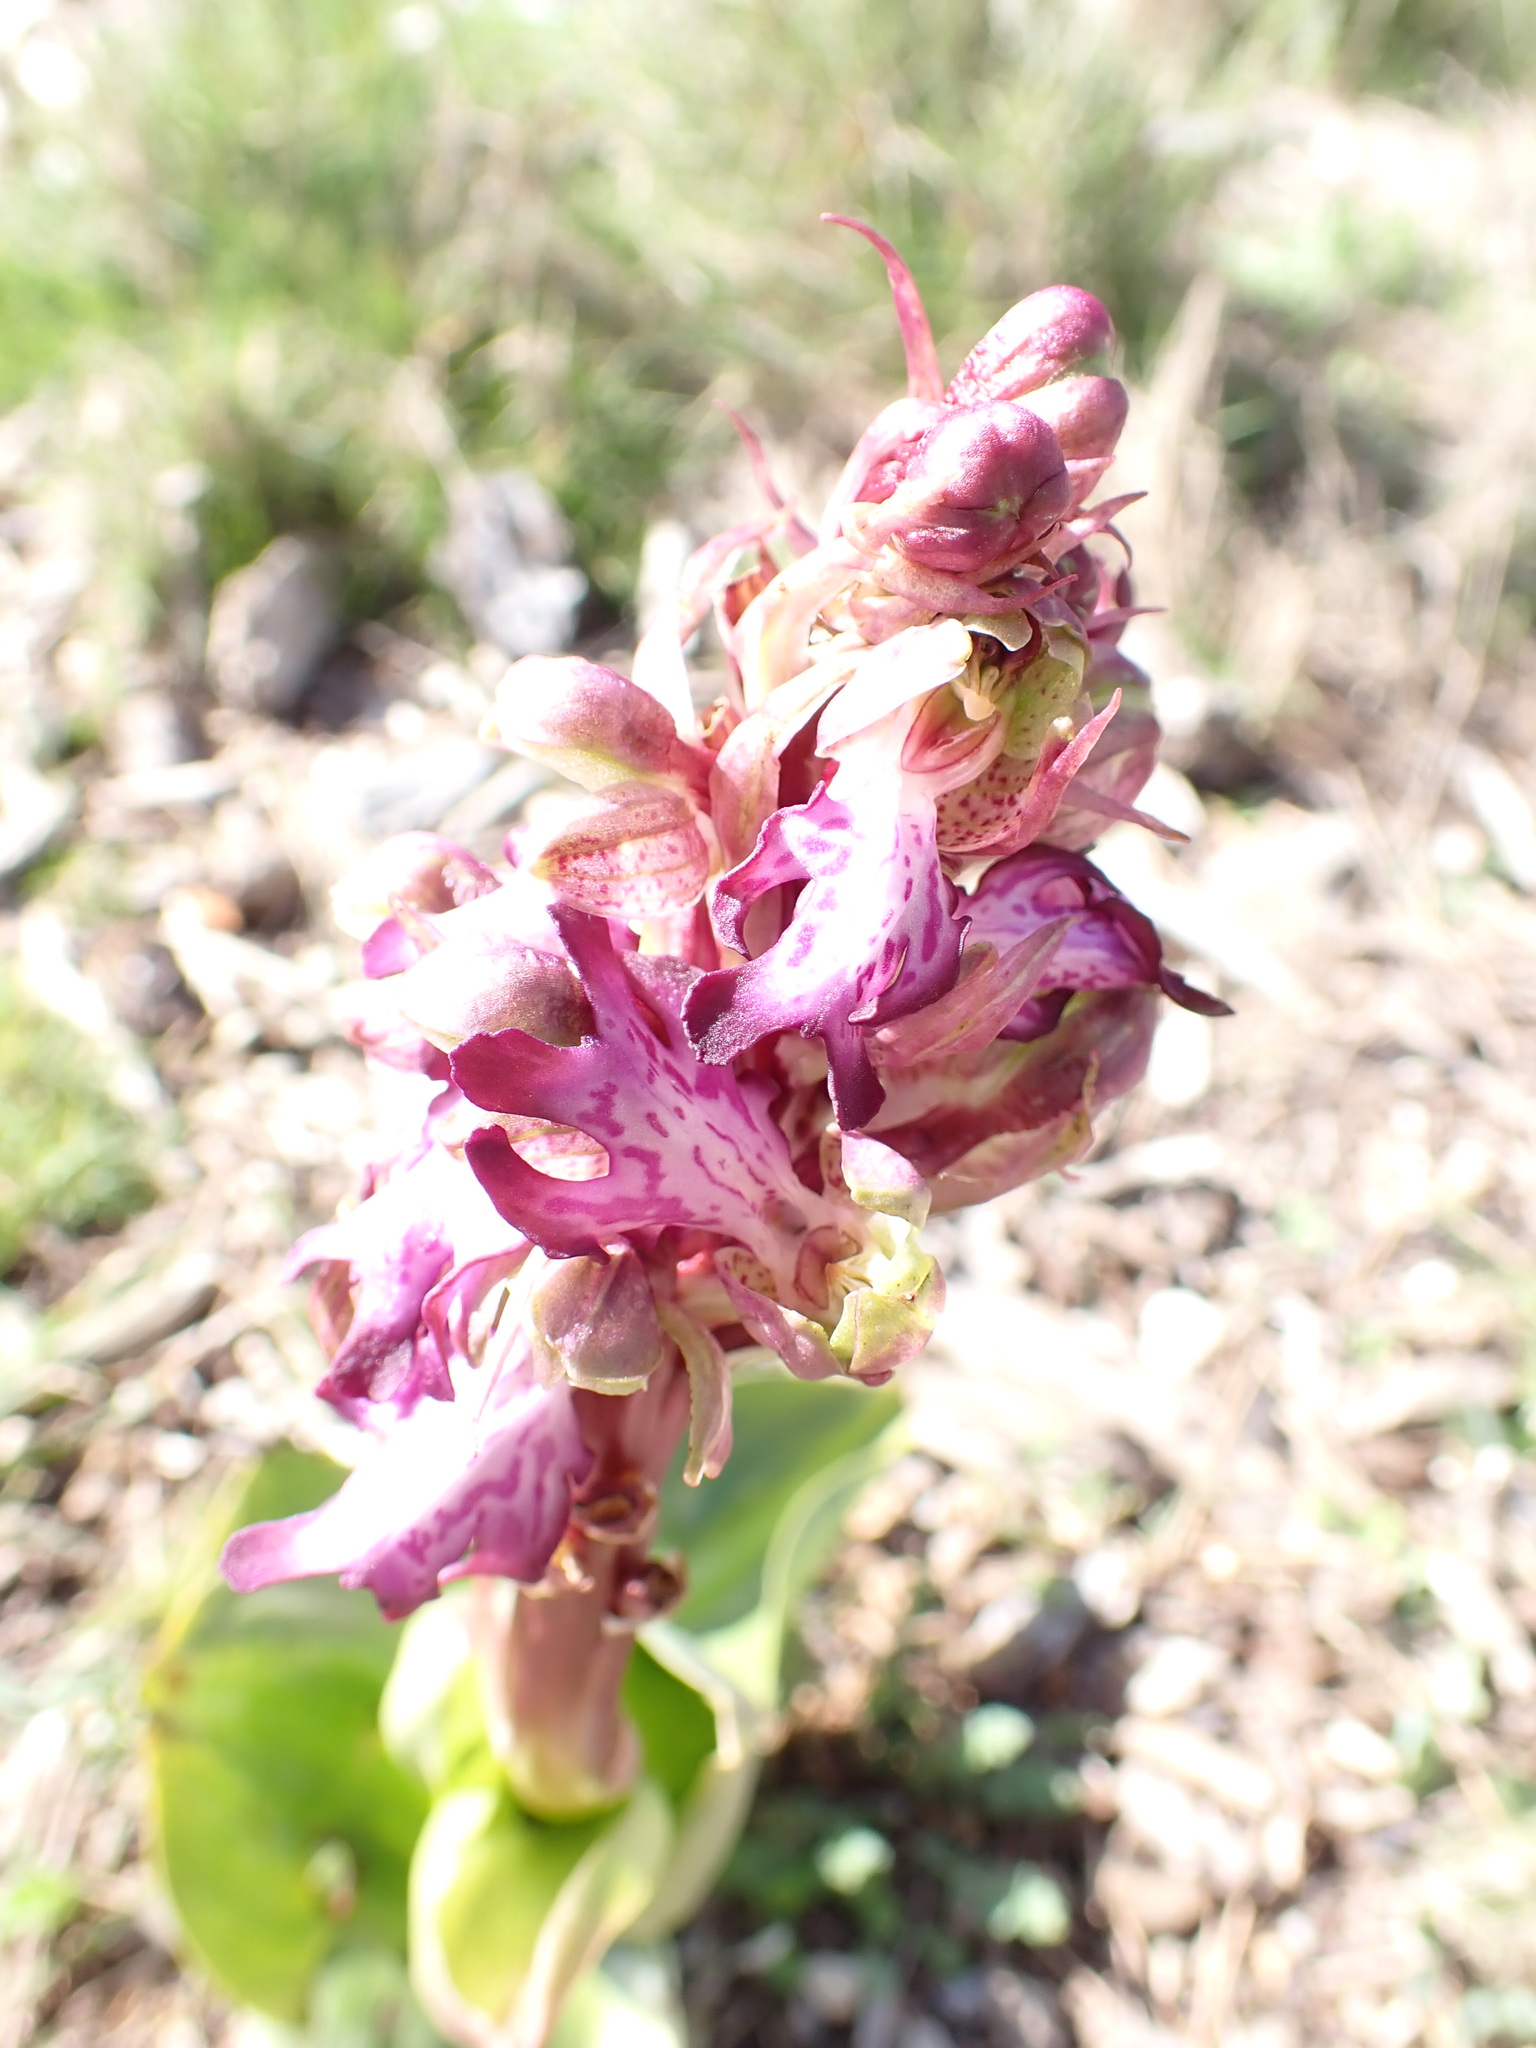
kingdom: Plantae
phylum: Tracheophyta
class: Liliopsida
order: Asparagales
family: Orchidaceae
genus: Himantoglossum
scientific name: Himantoglossum robertianum
